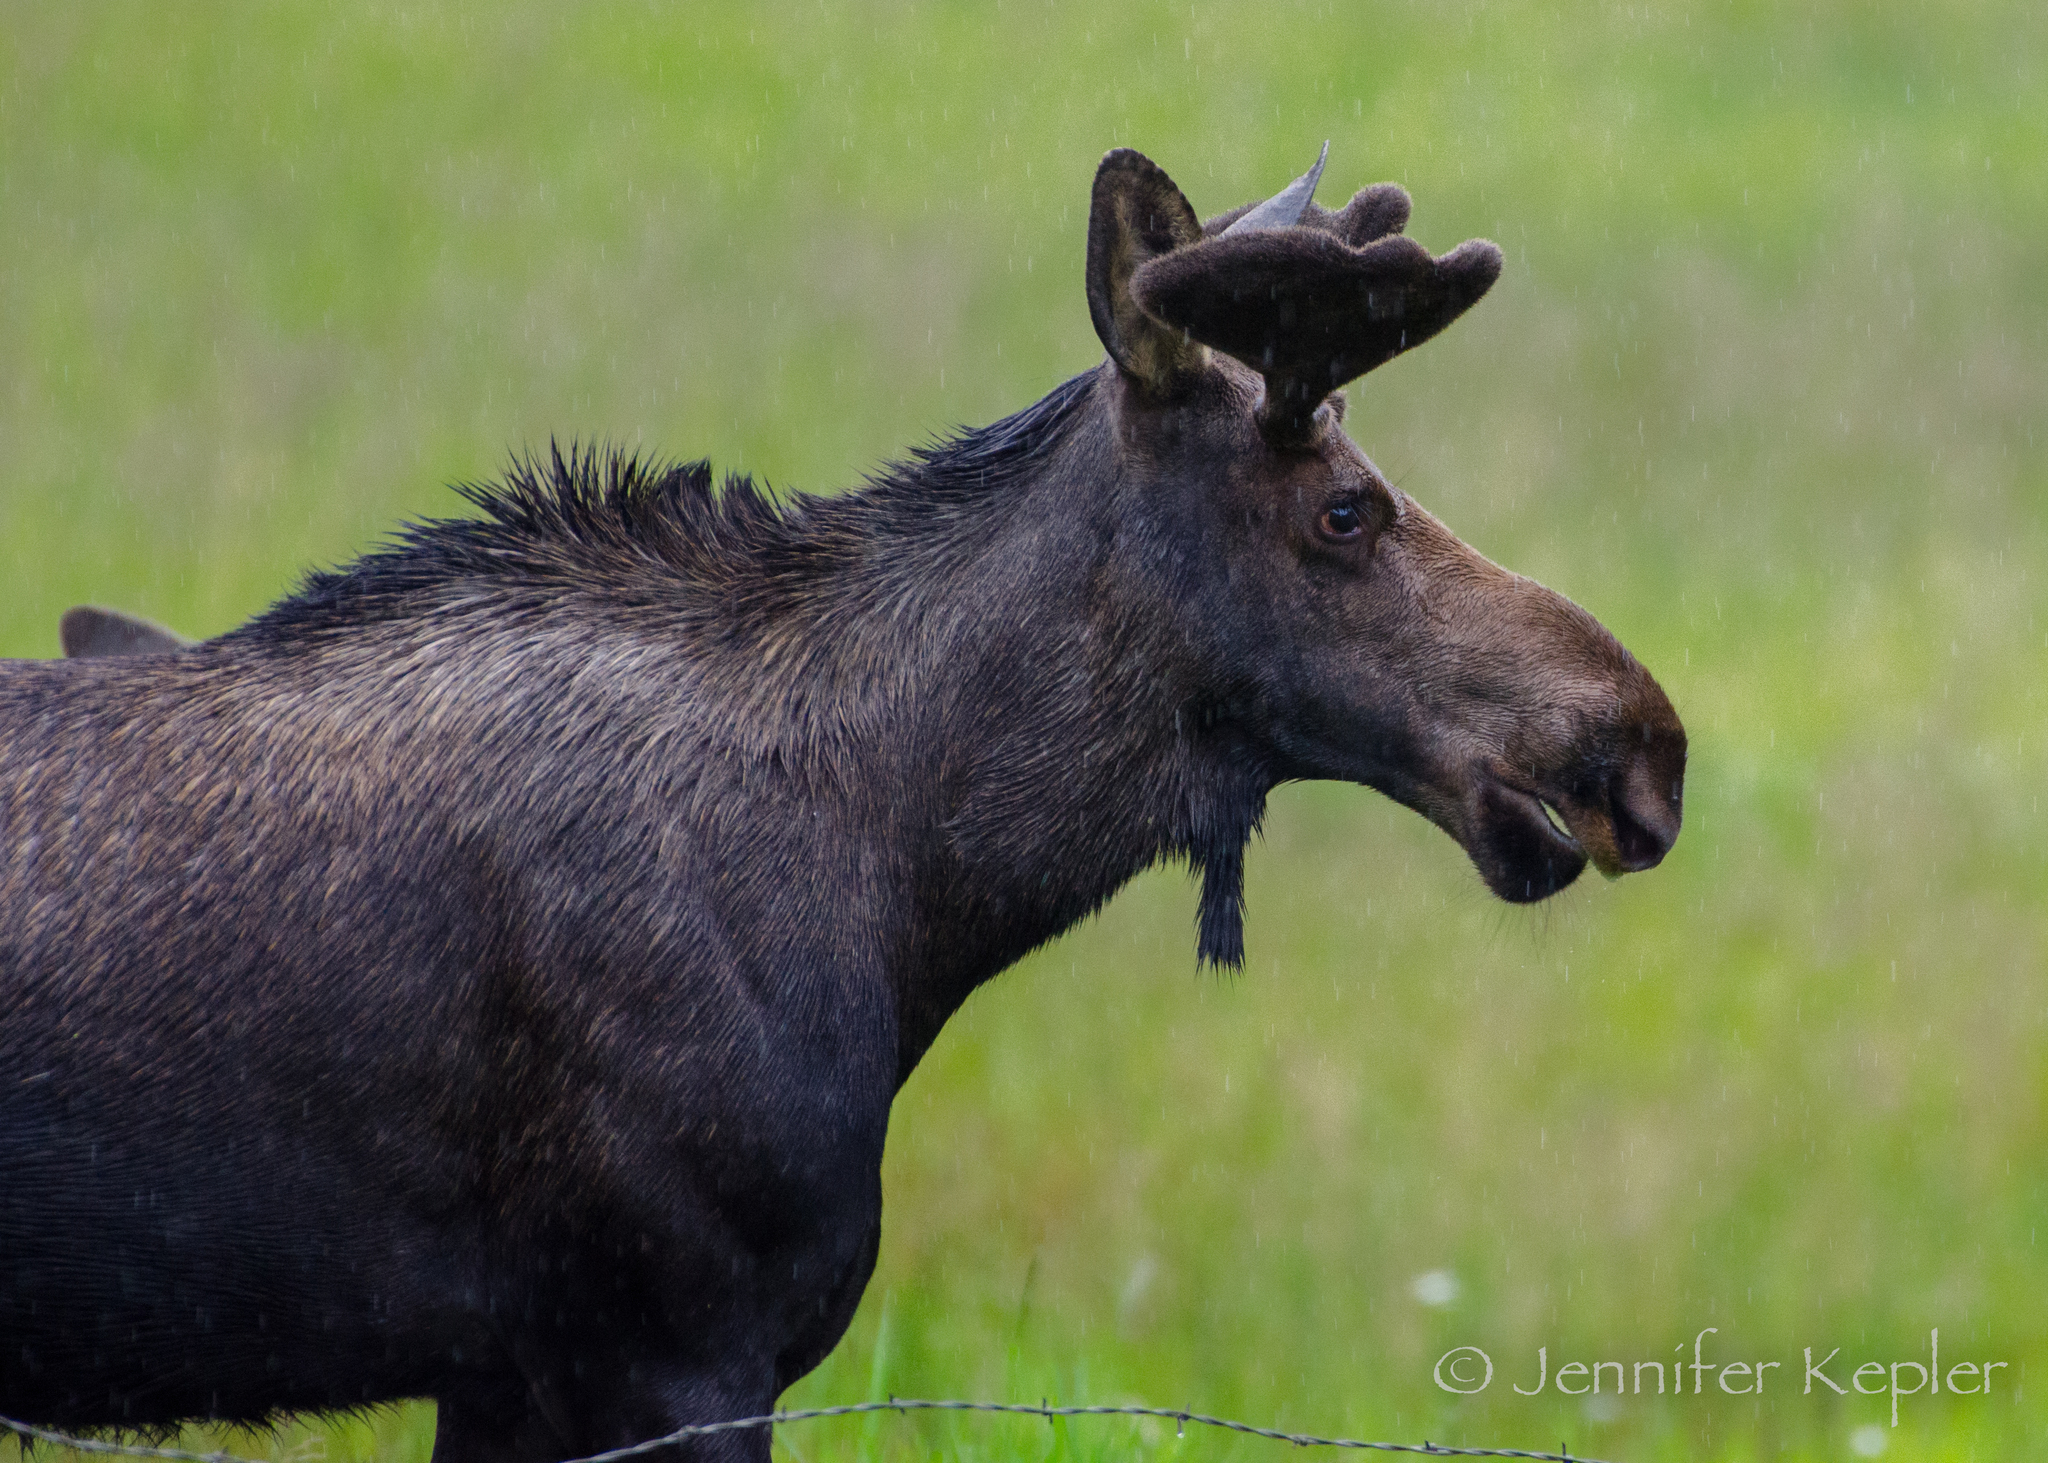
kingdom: Animalia
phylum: Chordata
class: Mammalia
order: Artiodactyla
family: Cervidae
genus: Alces
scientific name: Alces alces
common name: Moose
